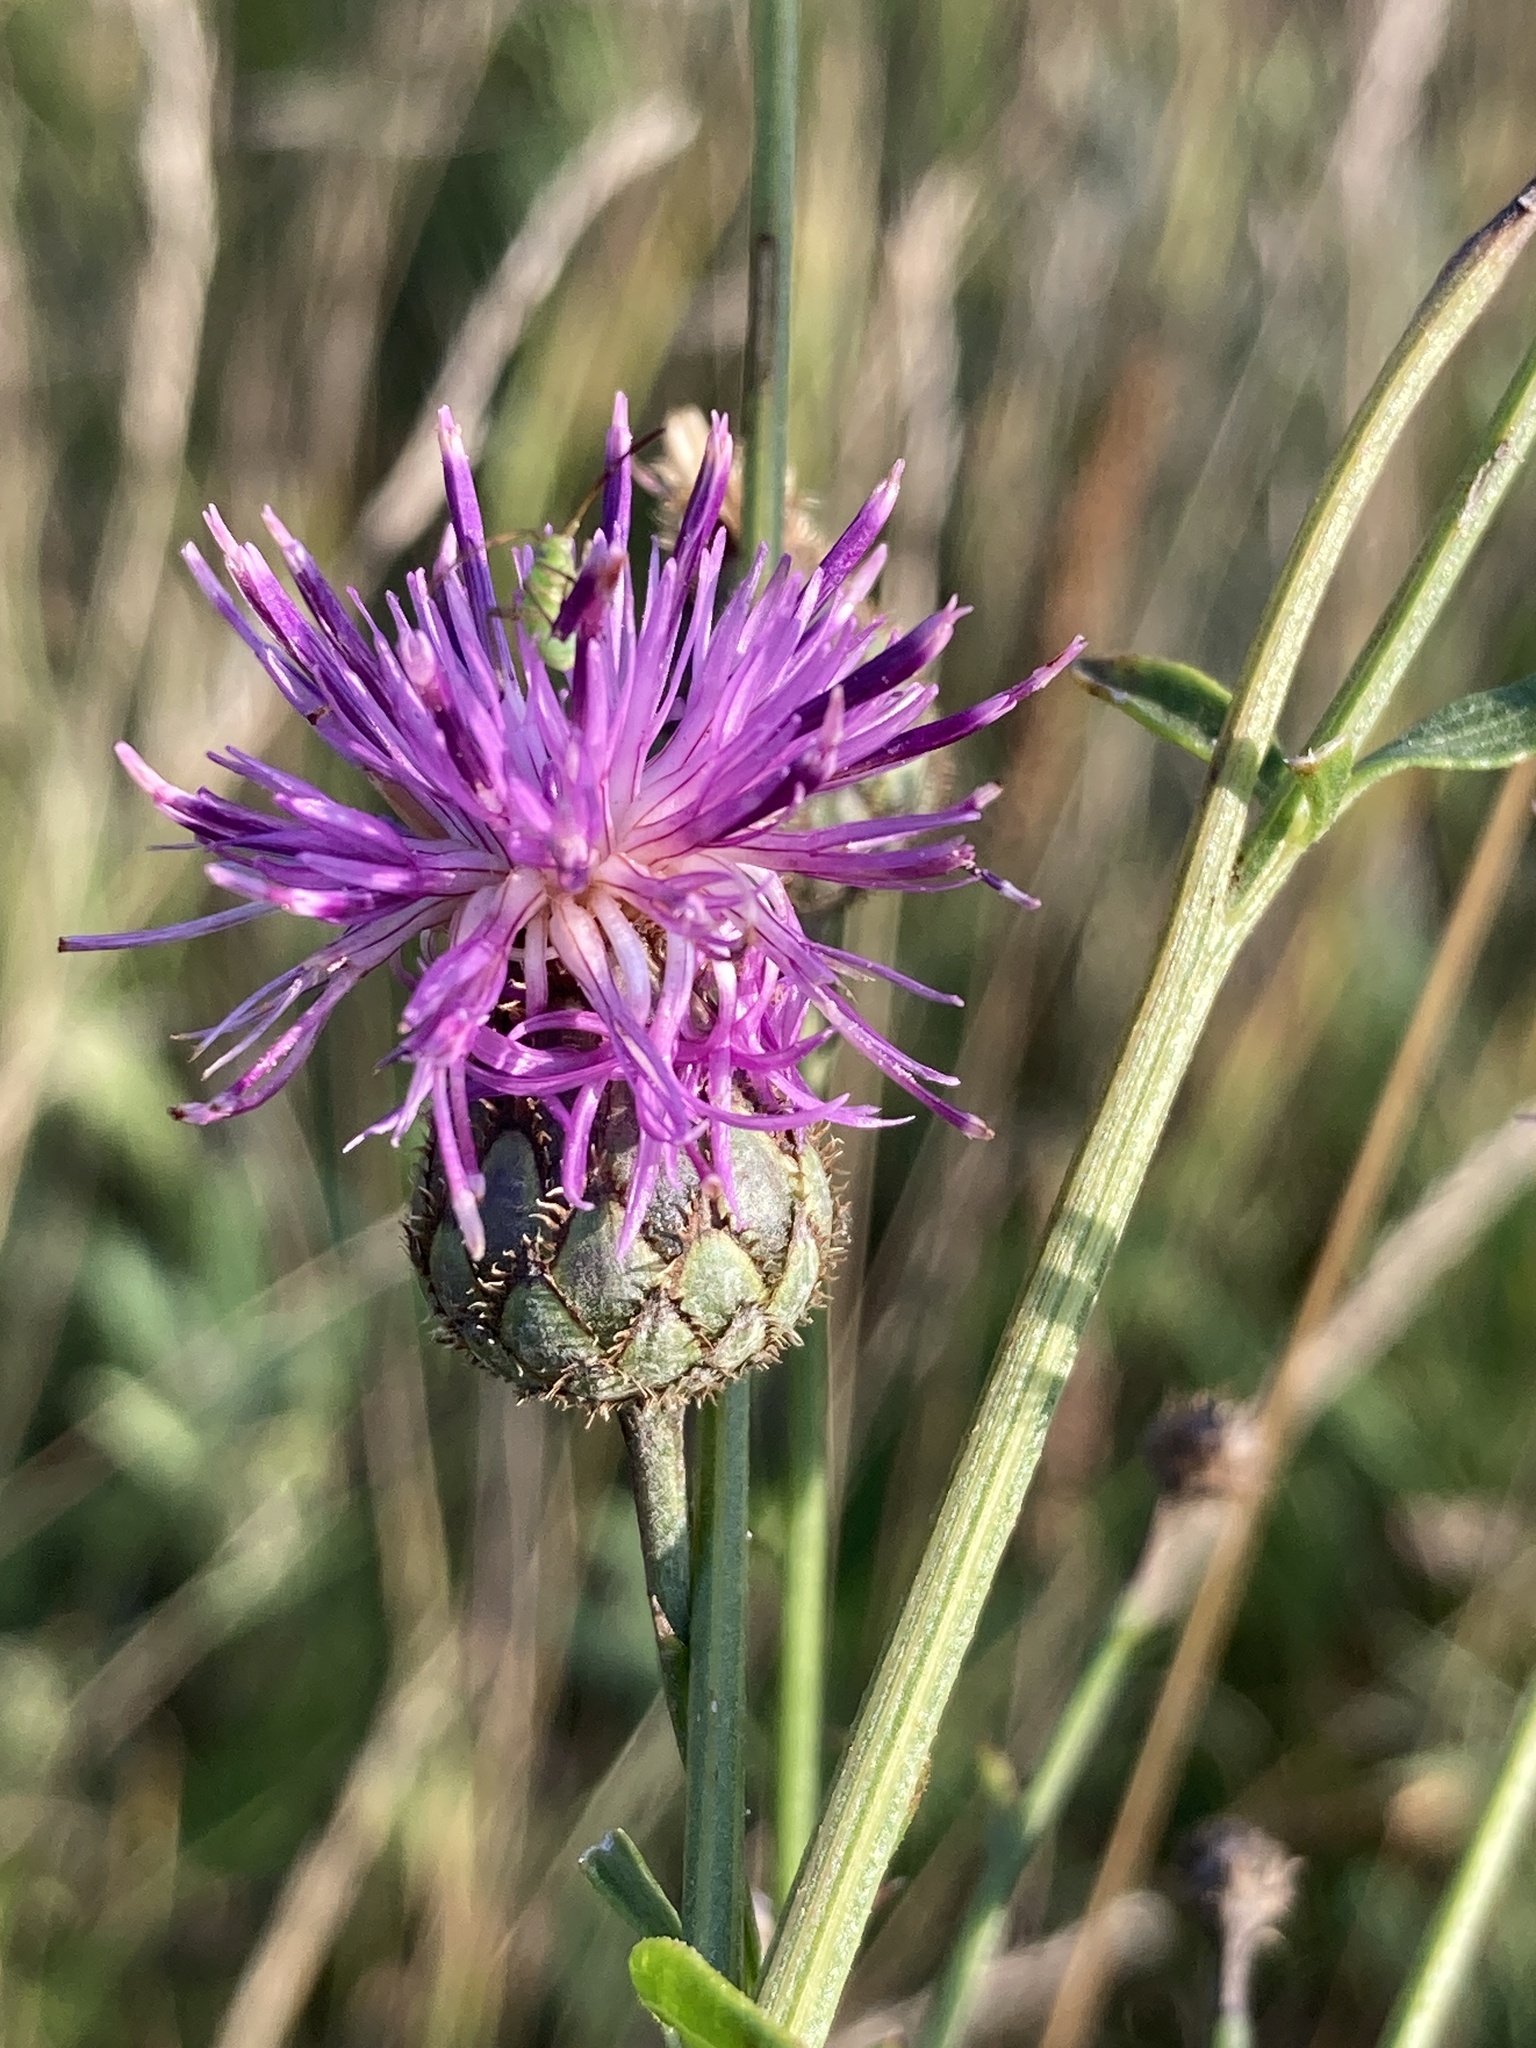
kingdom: Plantae
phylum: Tracheophyta
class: Magnoliopsida
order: Asterales
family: Asteraceae
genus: Centaurea
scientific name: Centaurea scabiosa
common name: Greater knapweed
